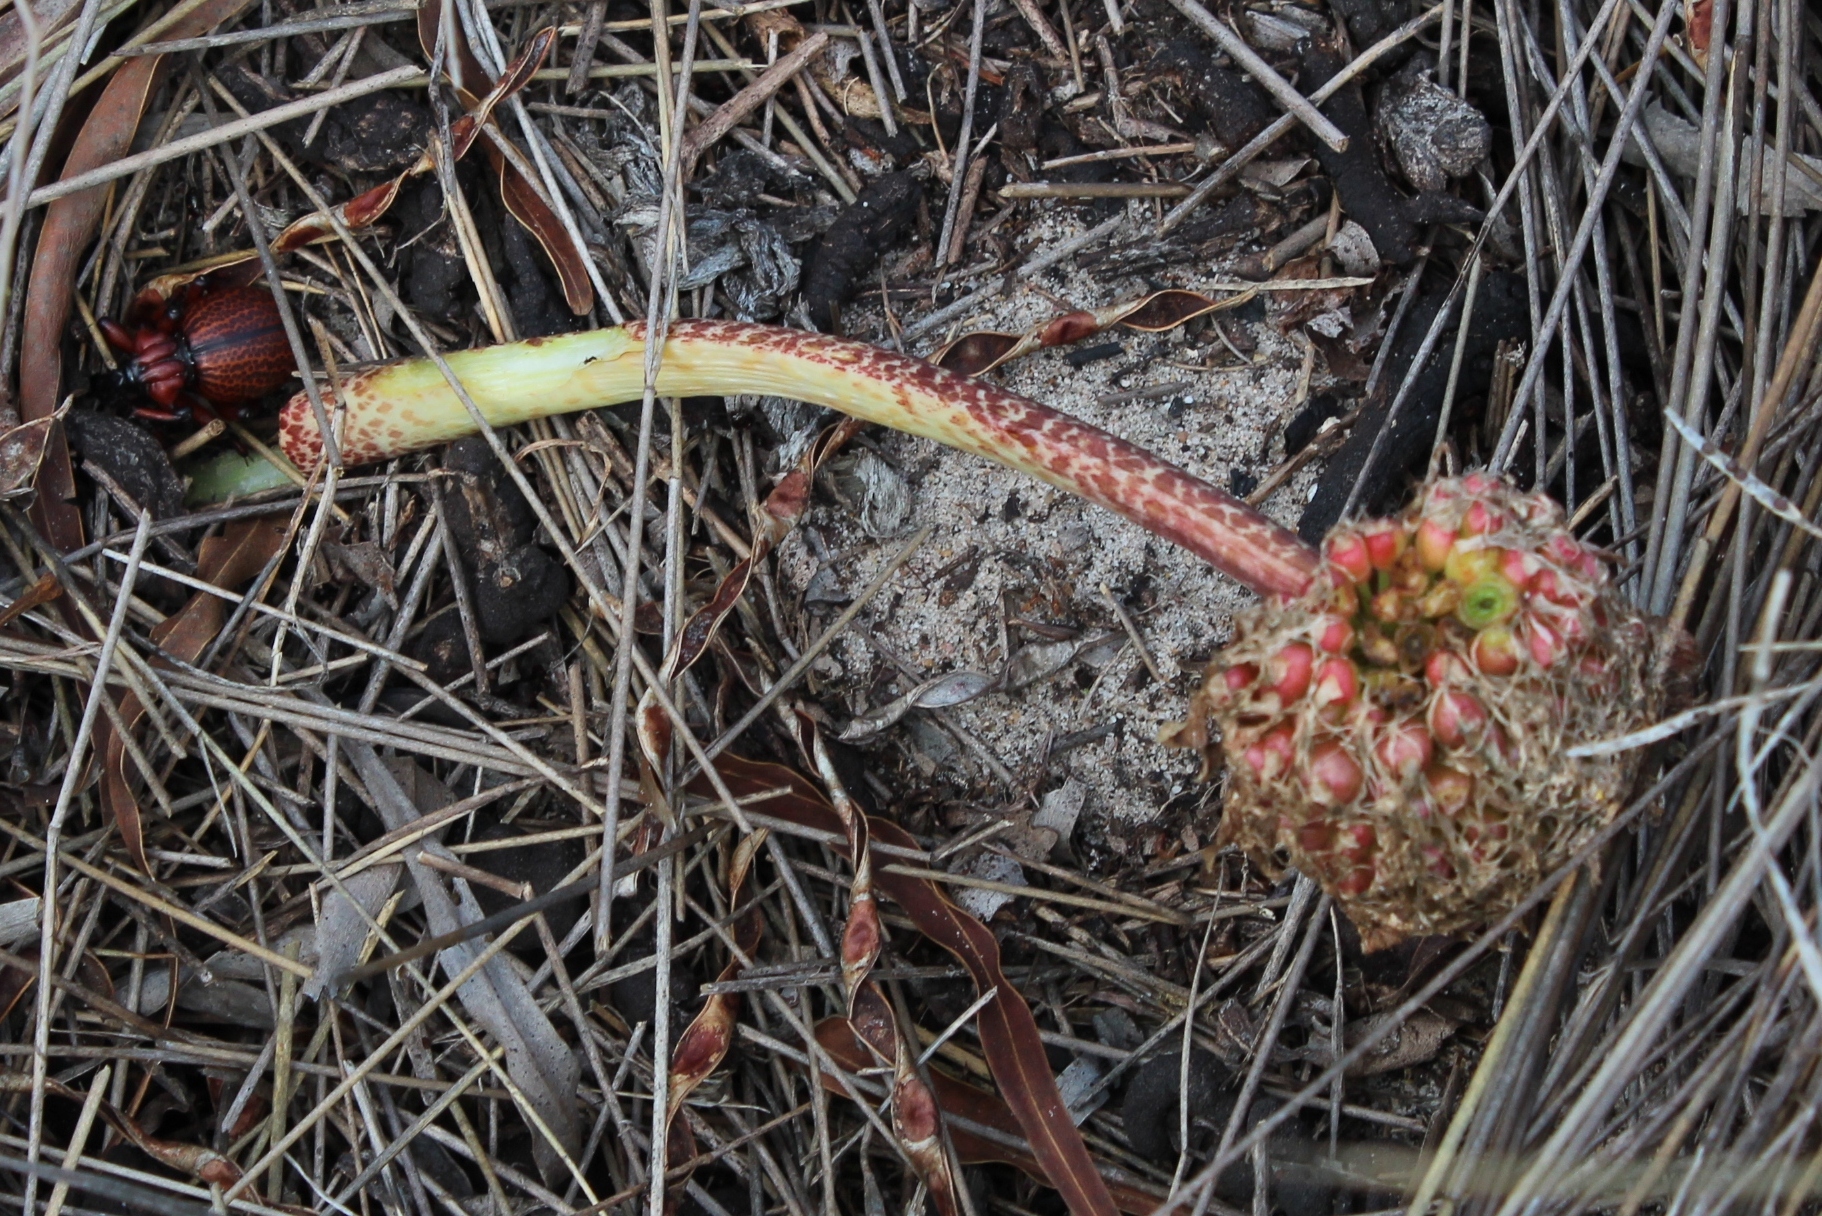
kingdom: Plantae
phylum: Tracheophyta
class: Liliopsida
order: Asparagales
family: Amaryllidaceae
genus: Haemanthus
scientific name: Haemanthus coccineus
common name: Cape-tulip
